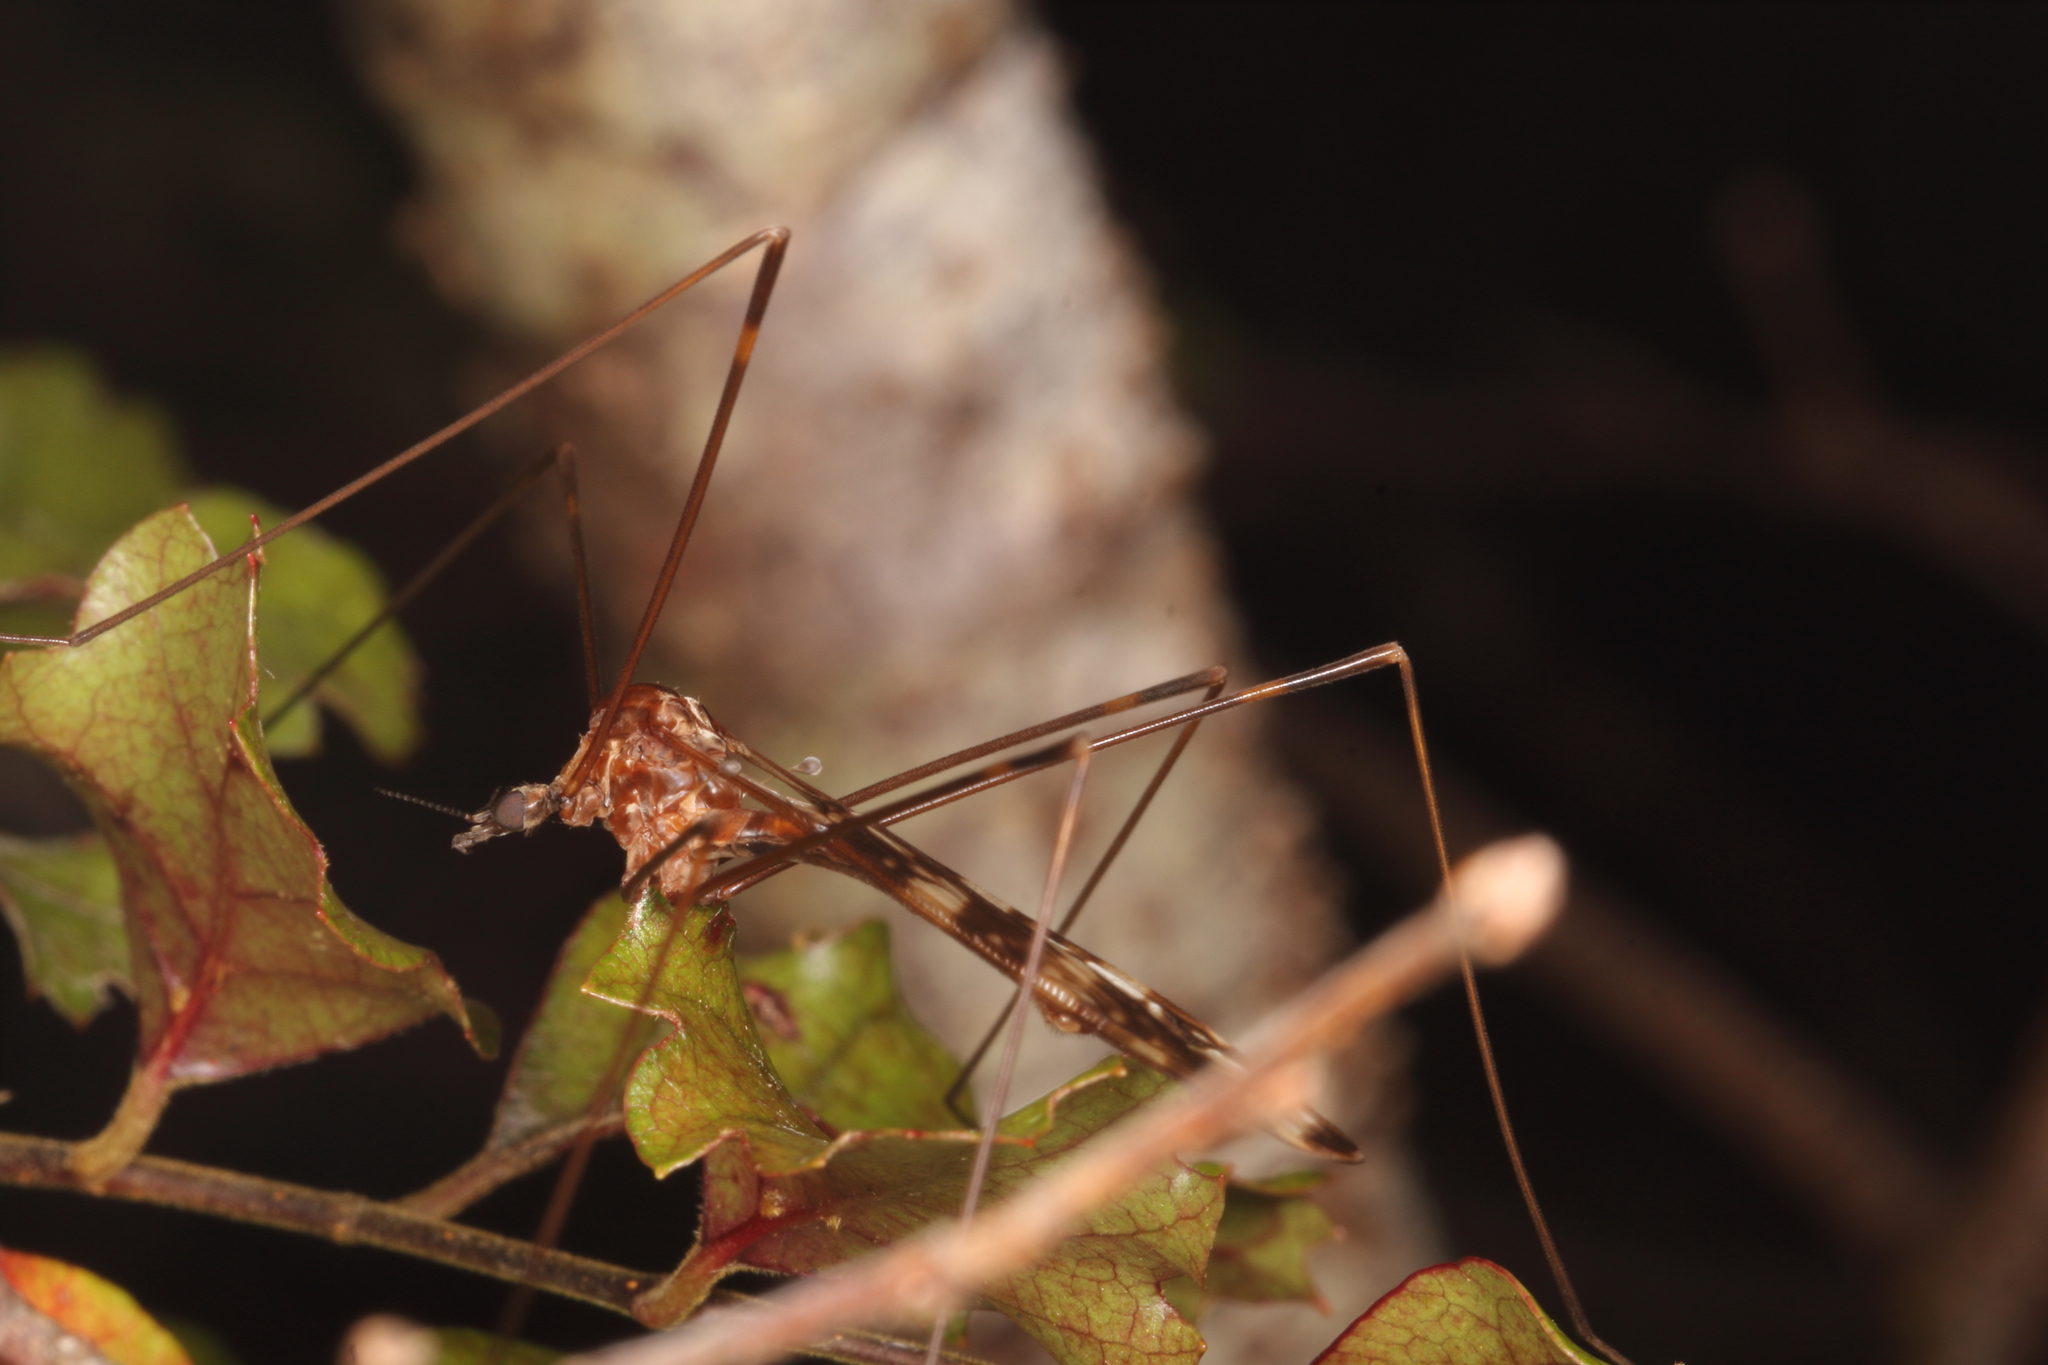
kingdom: Animalia
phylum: Arthropoda
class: Insecta
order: Diptera
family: Limoniidae
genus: Discobola
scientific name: Discobola dohrni
